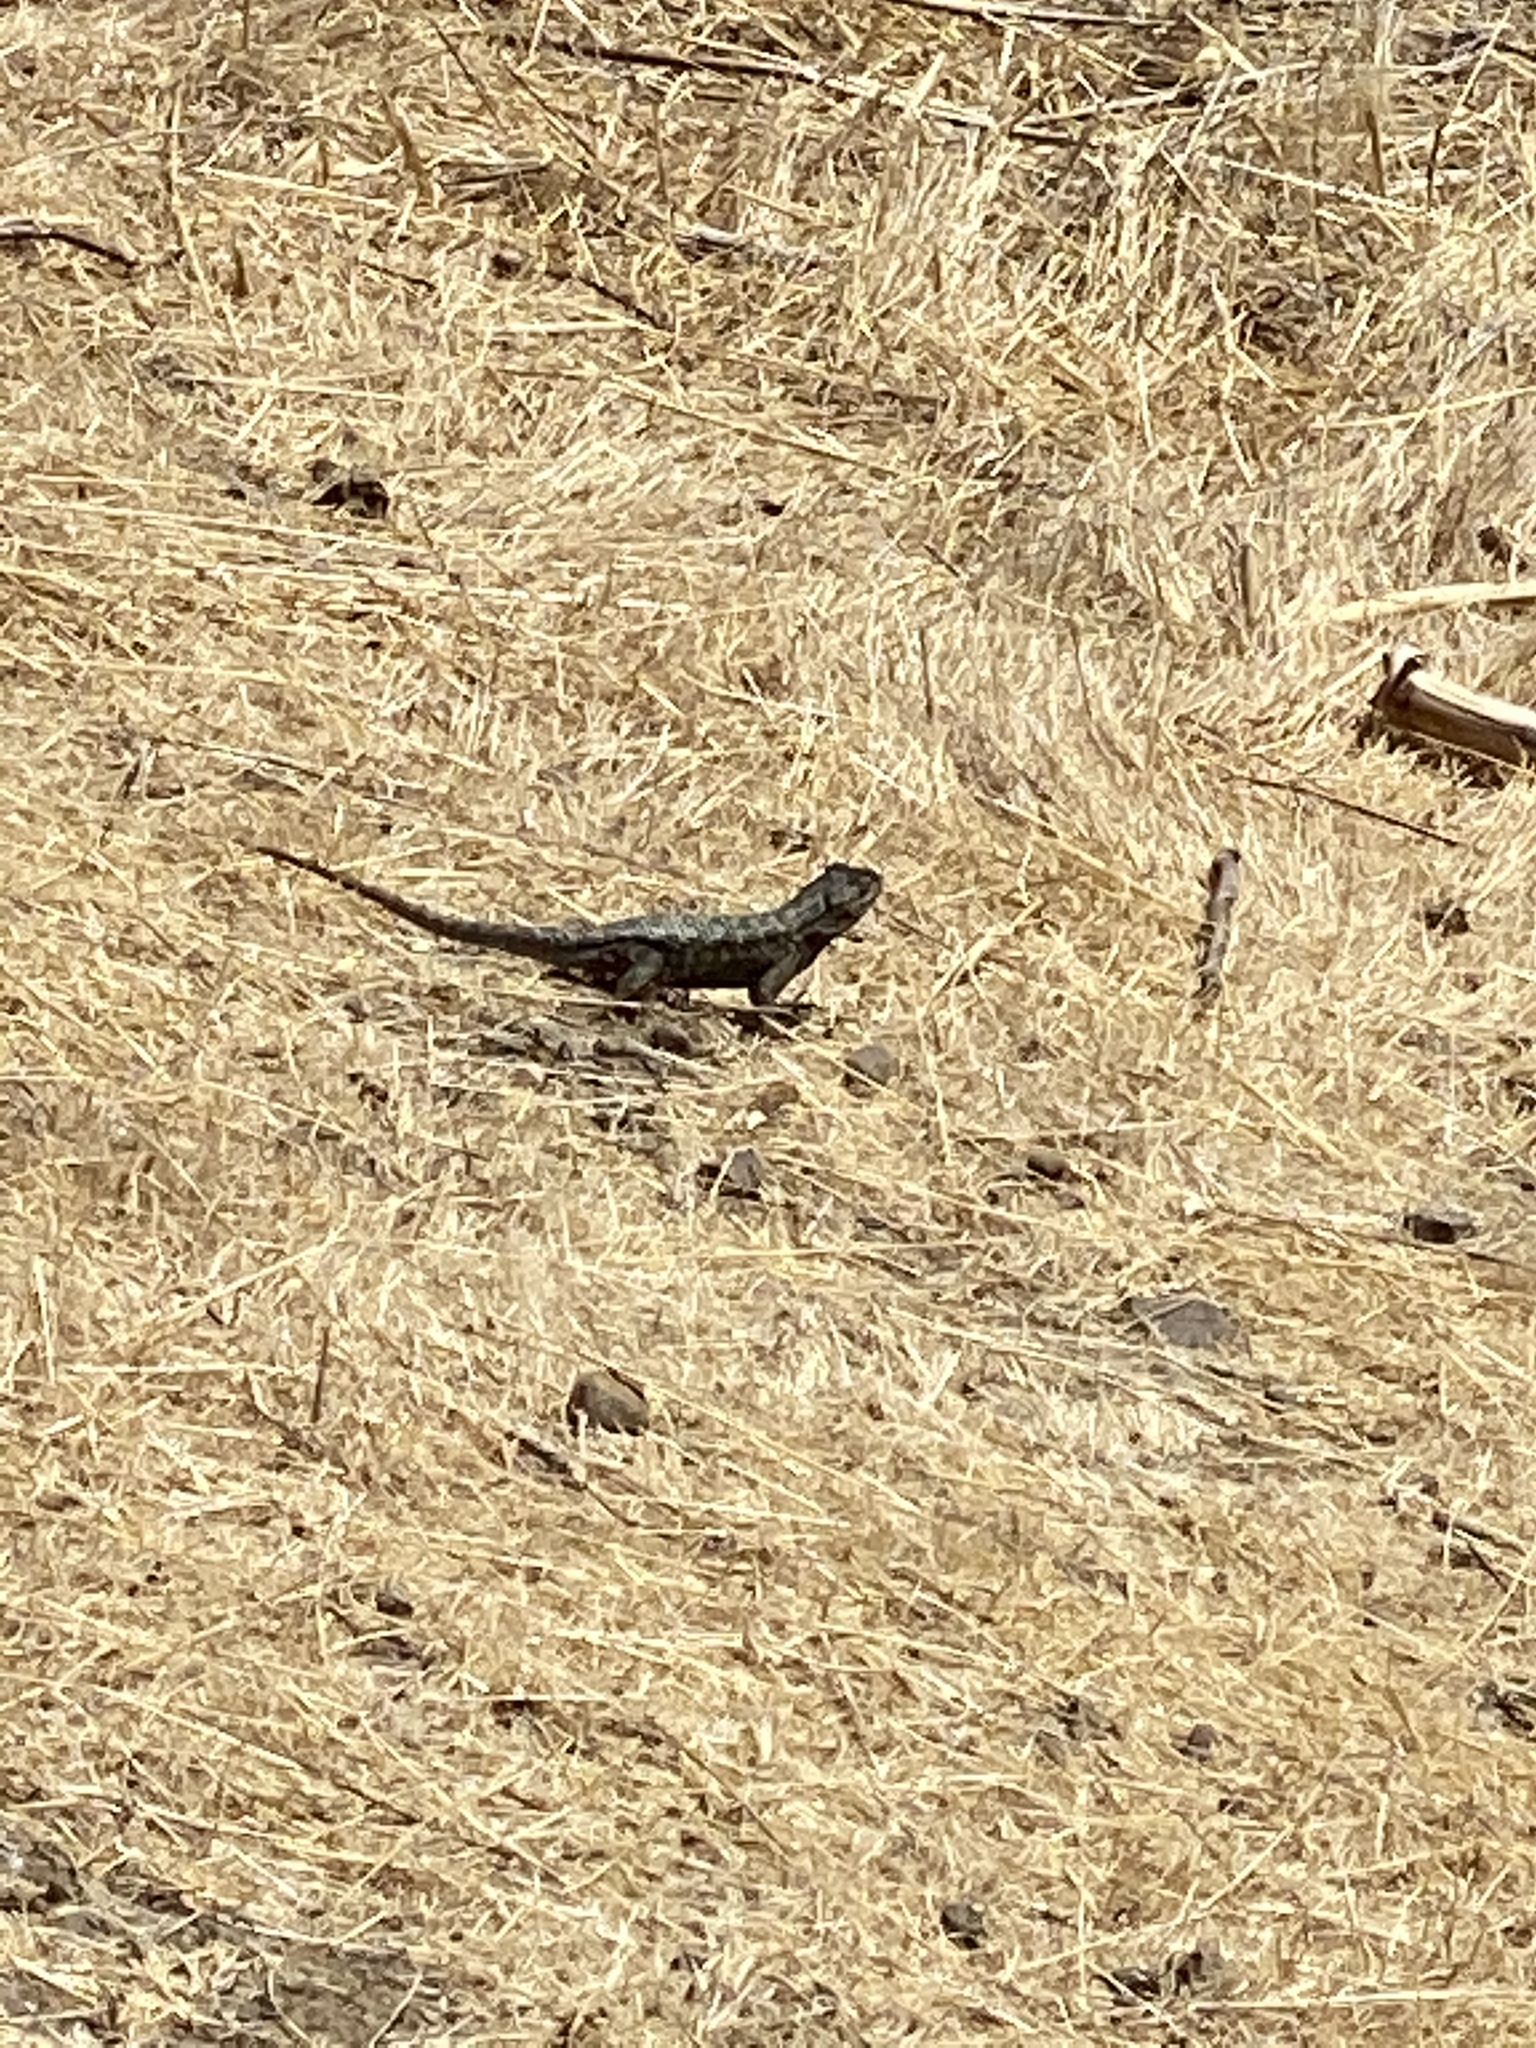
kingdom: Animalia
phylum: Chordata
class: Squamata
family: Phrynosomatidae
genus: Sceloporus
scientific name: Sceloporus occidentalis
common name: Western fence lizard
